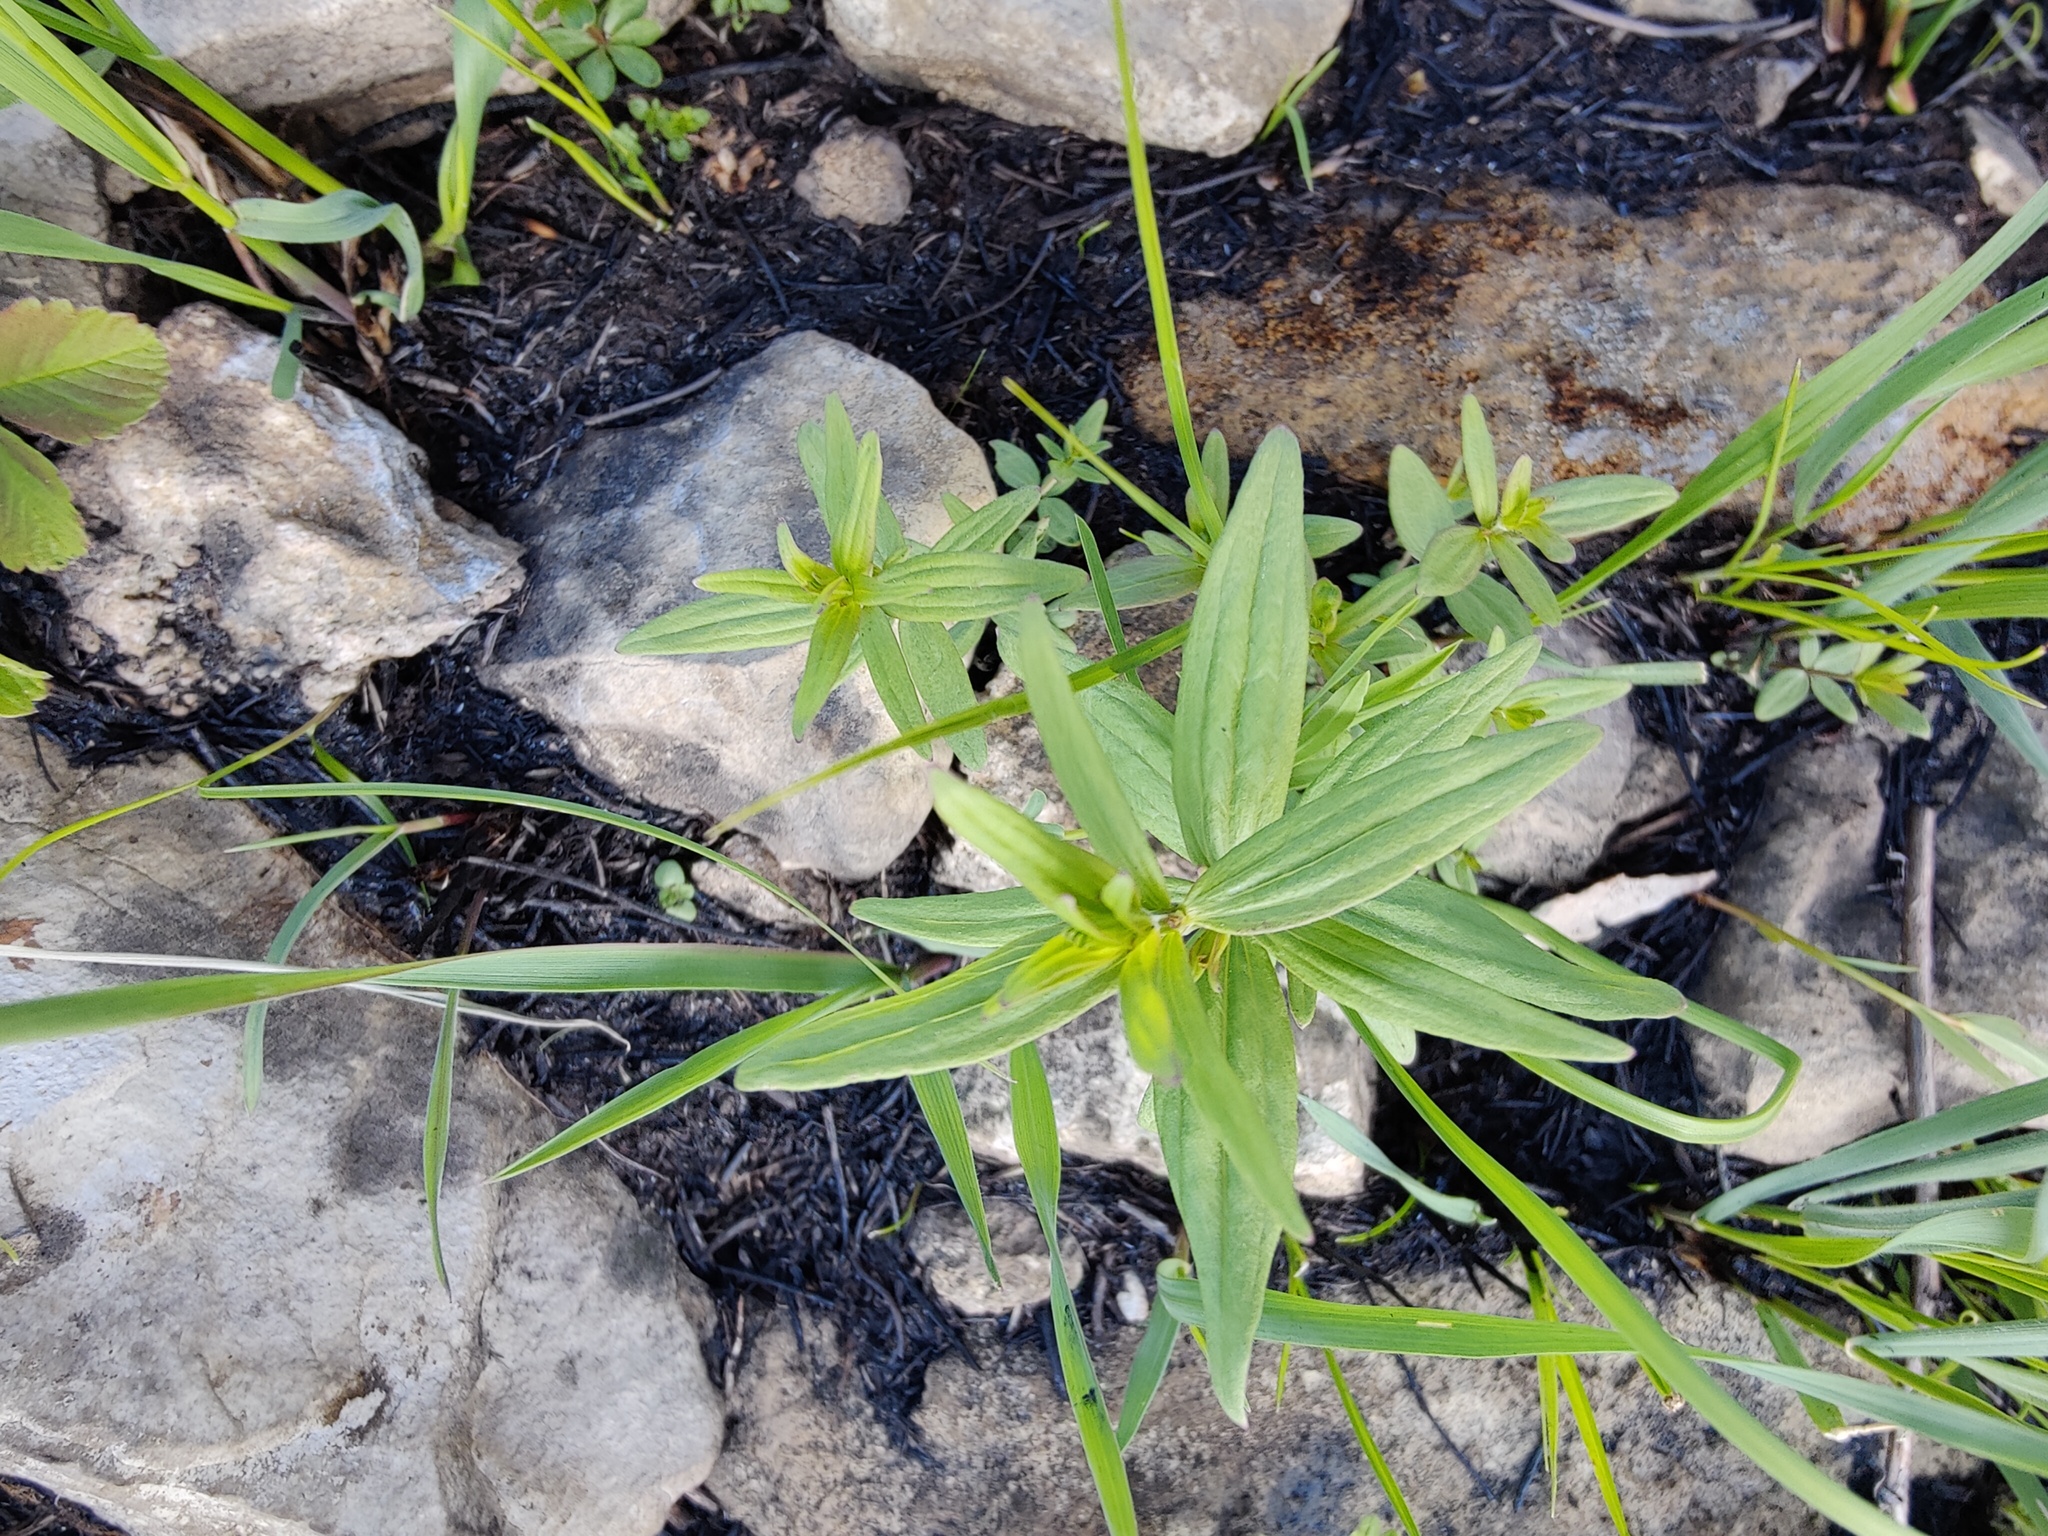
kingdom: Plantae
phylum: Tracheophyta
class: Magnoliopsida
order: Gentianales
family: Rubiaceae
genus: Galium
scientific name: Galium boreale
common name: Northern bedstraw
